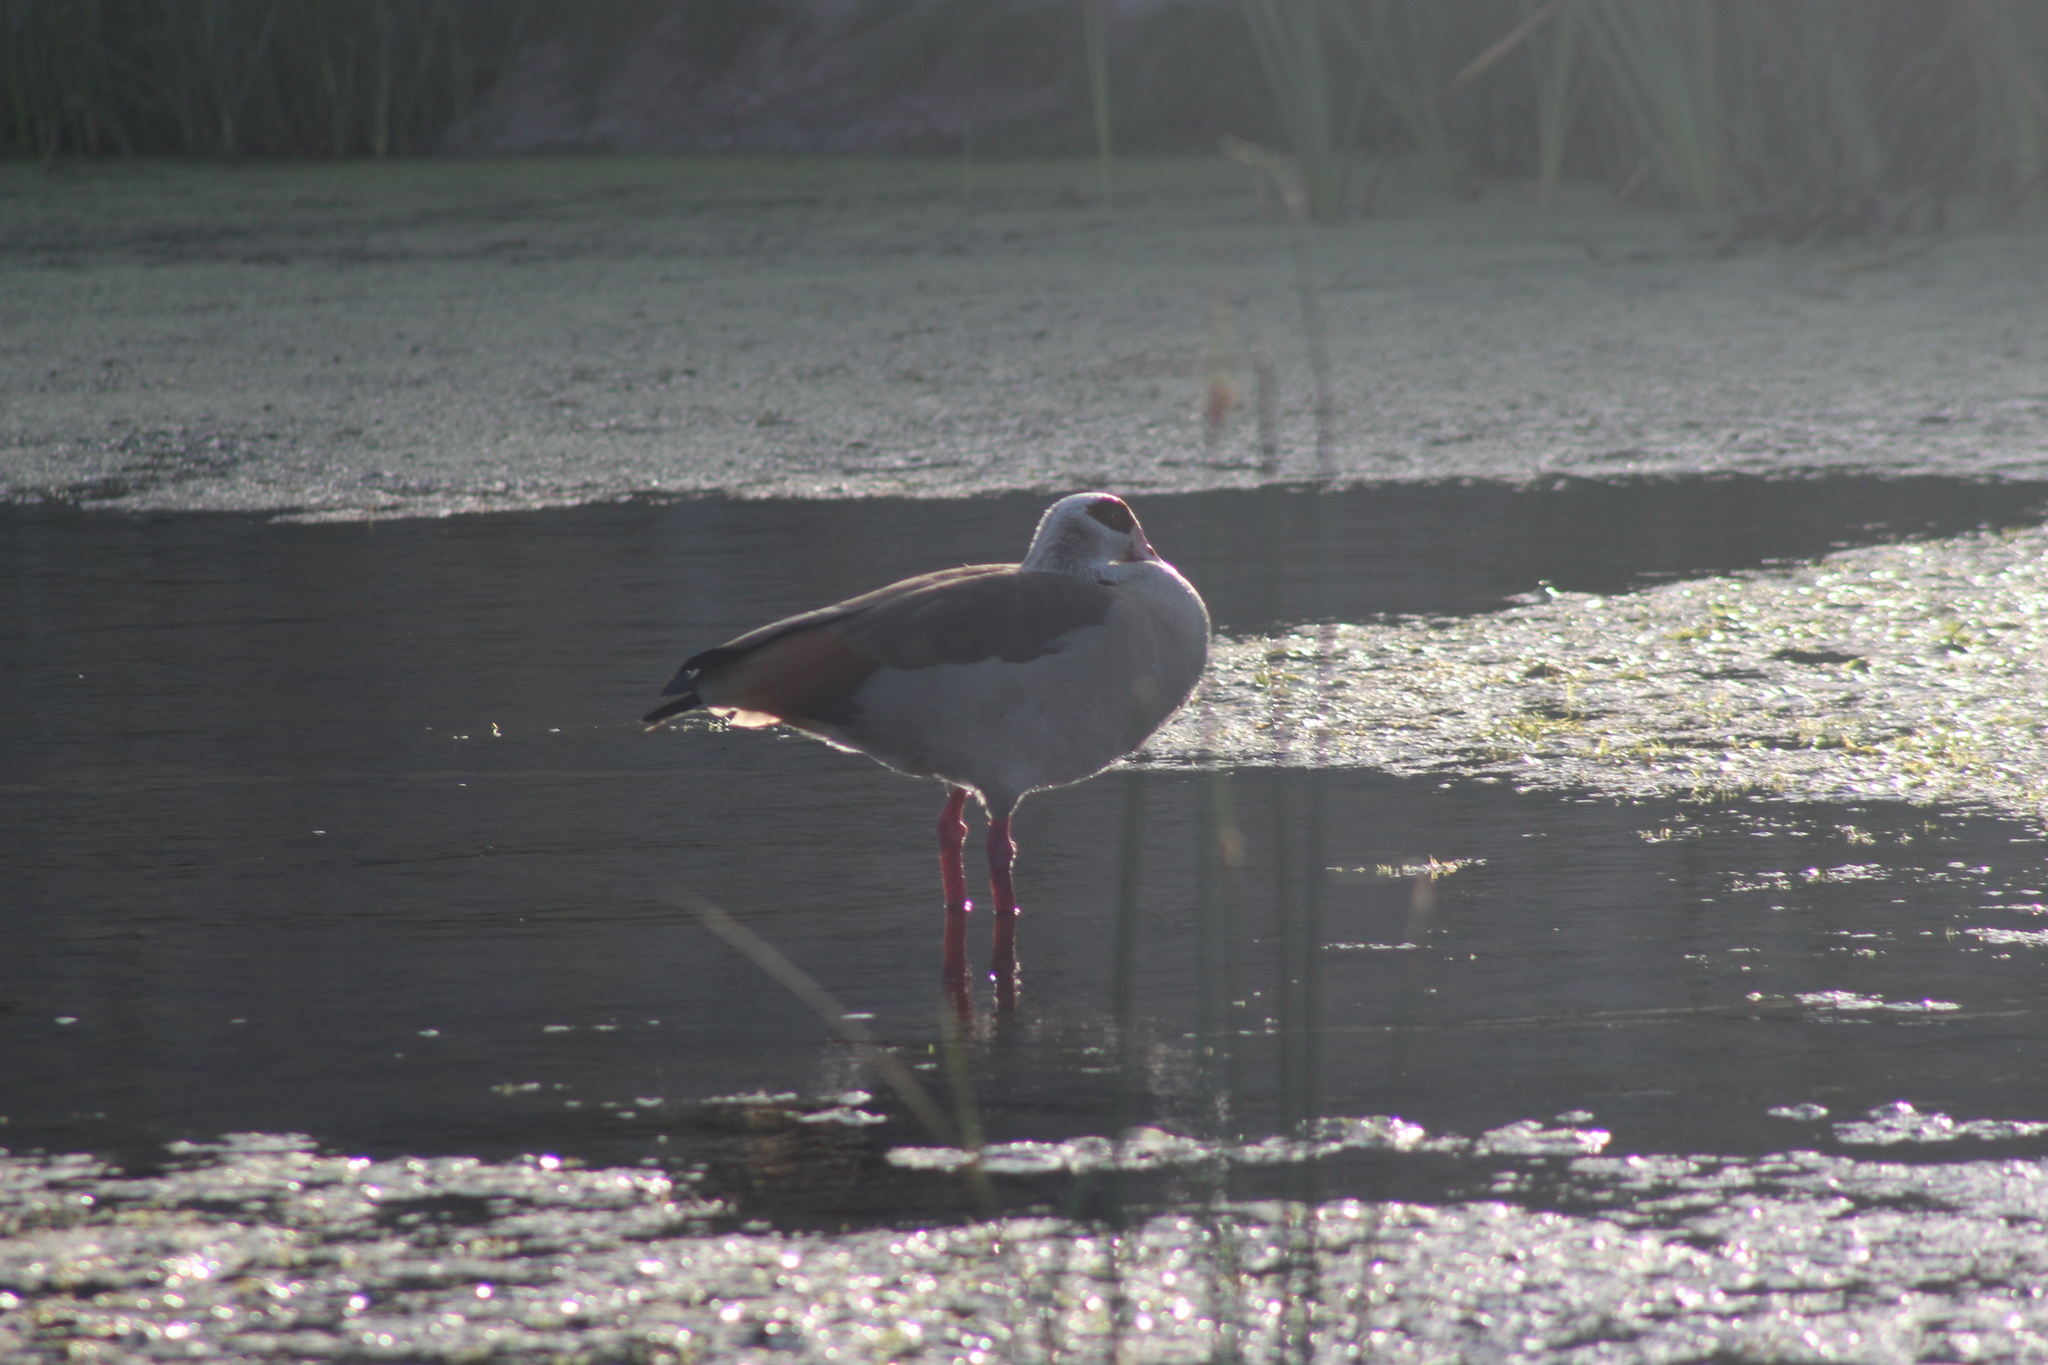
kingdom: Animalia
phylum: Chordata
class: Aves
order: Anseriformes
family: Anatidae
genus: Alopochen
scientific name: Alopochen aegyptiaca
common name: Egyptian goose
